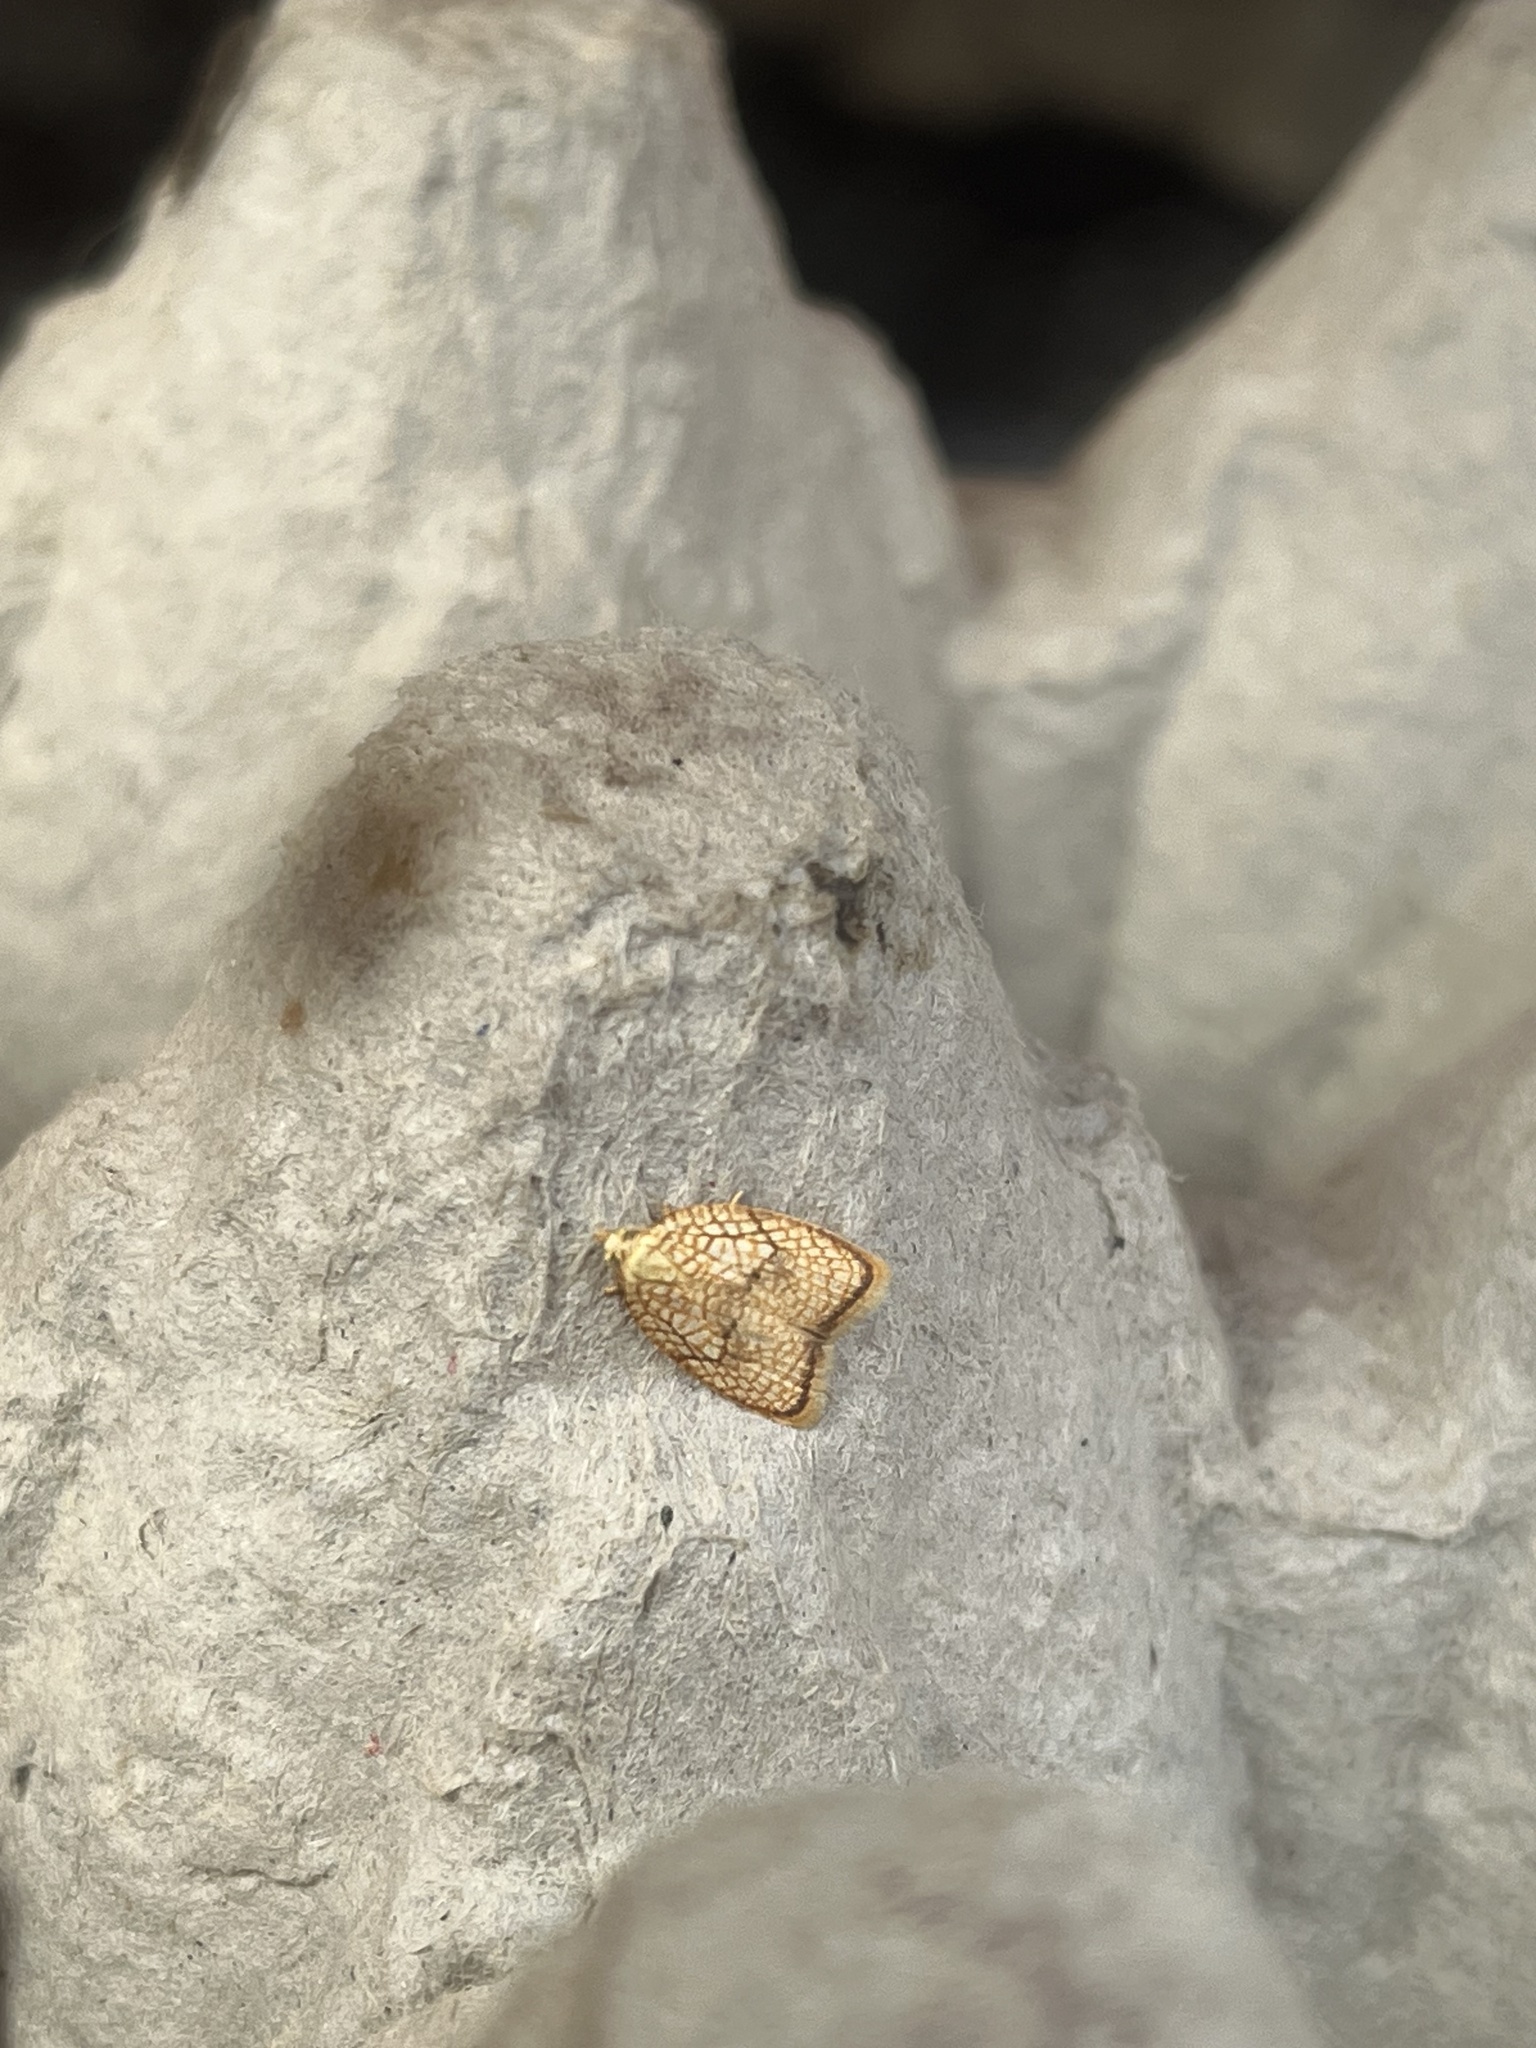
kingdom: Animalia
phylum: Arthropoda
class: Insecta
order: Lepidoptera
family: Tortricidae
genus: Acleris
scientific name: Acleris forsskaleana
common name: Maple button
